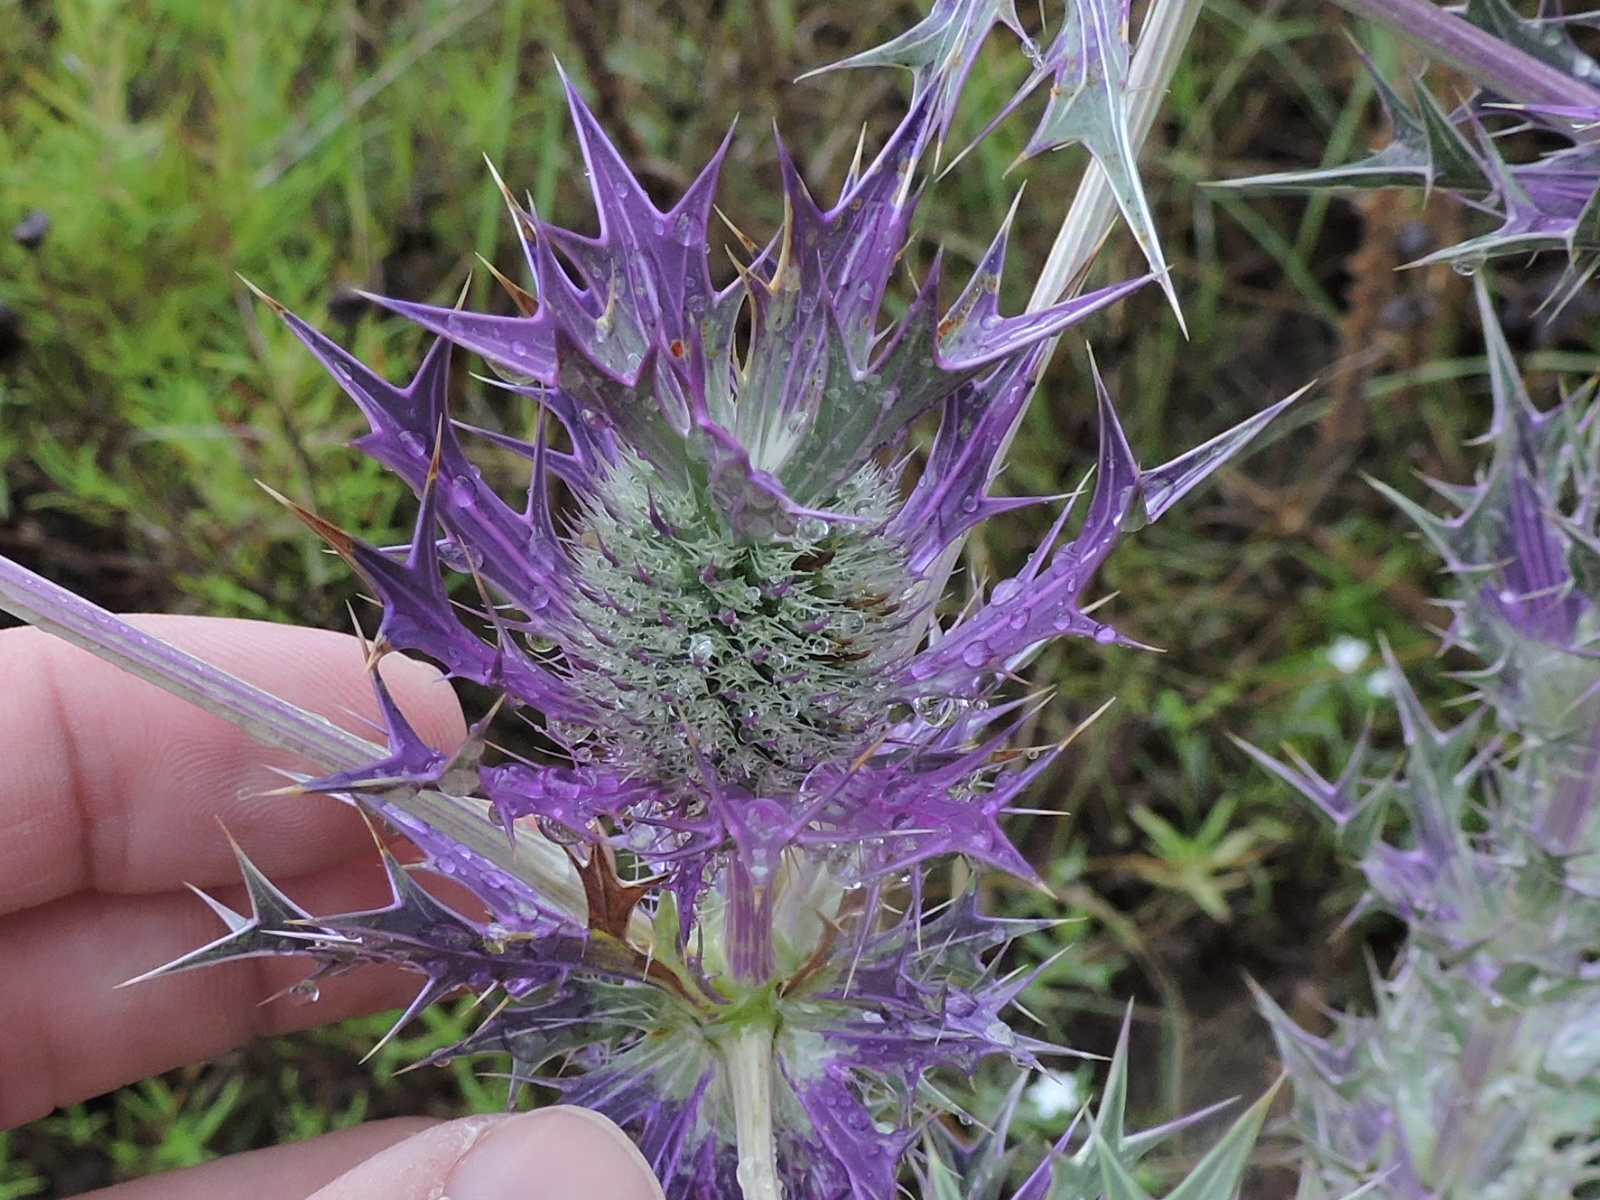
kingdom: Plantae
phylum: Tracheophyta
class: Magnoliopsida
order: Apiales
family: Apiaceae
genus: Eryngium
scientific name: Eryngium leavenworthii
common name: Leavenworth's eryngo
